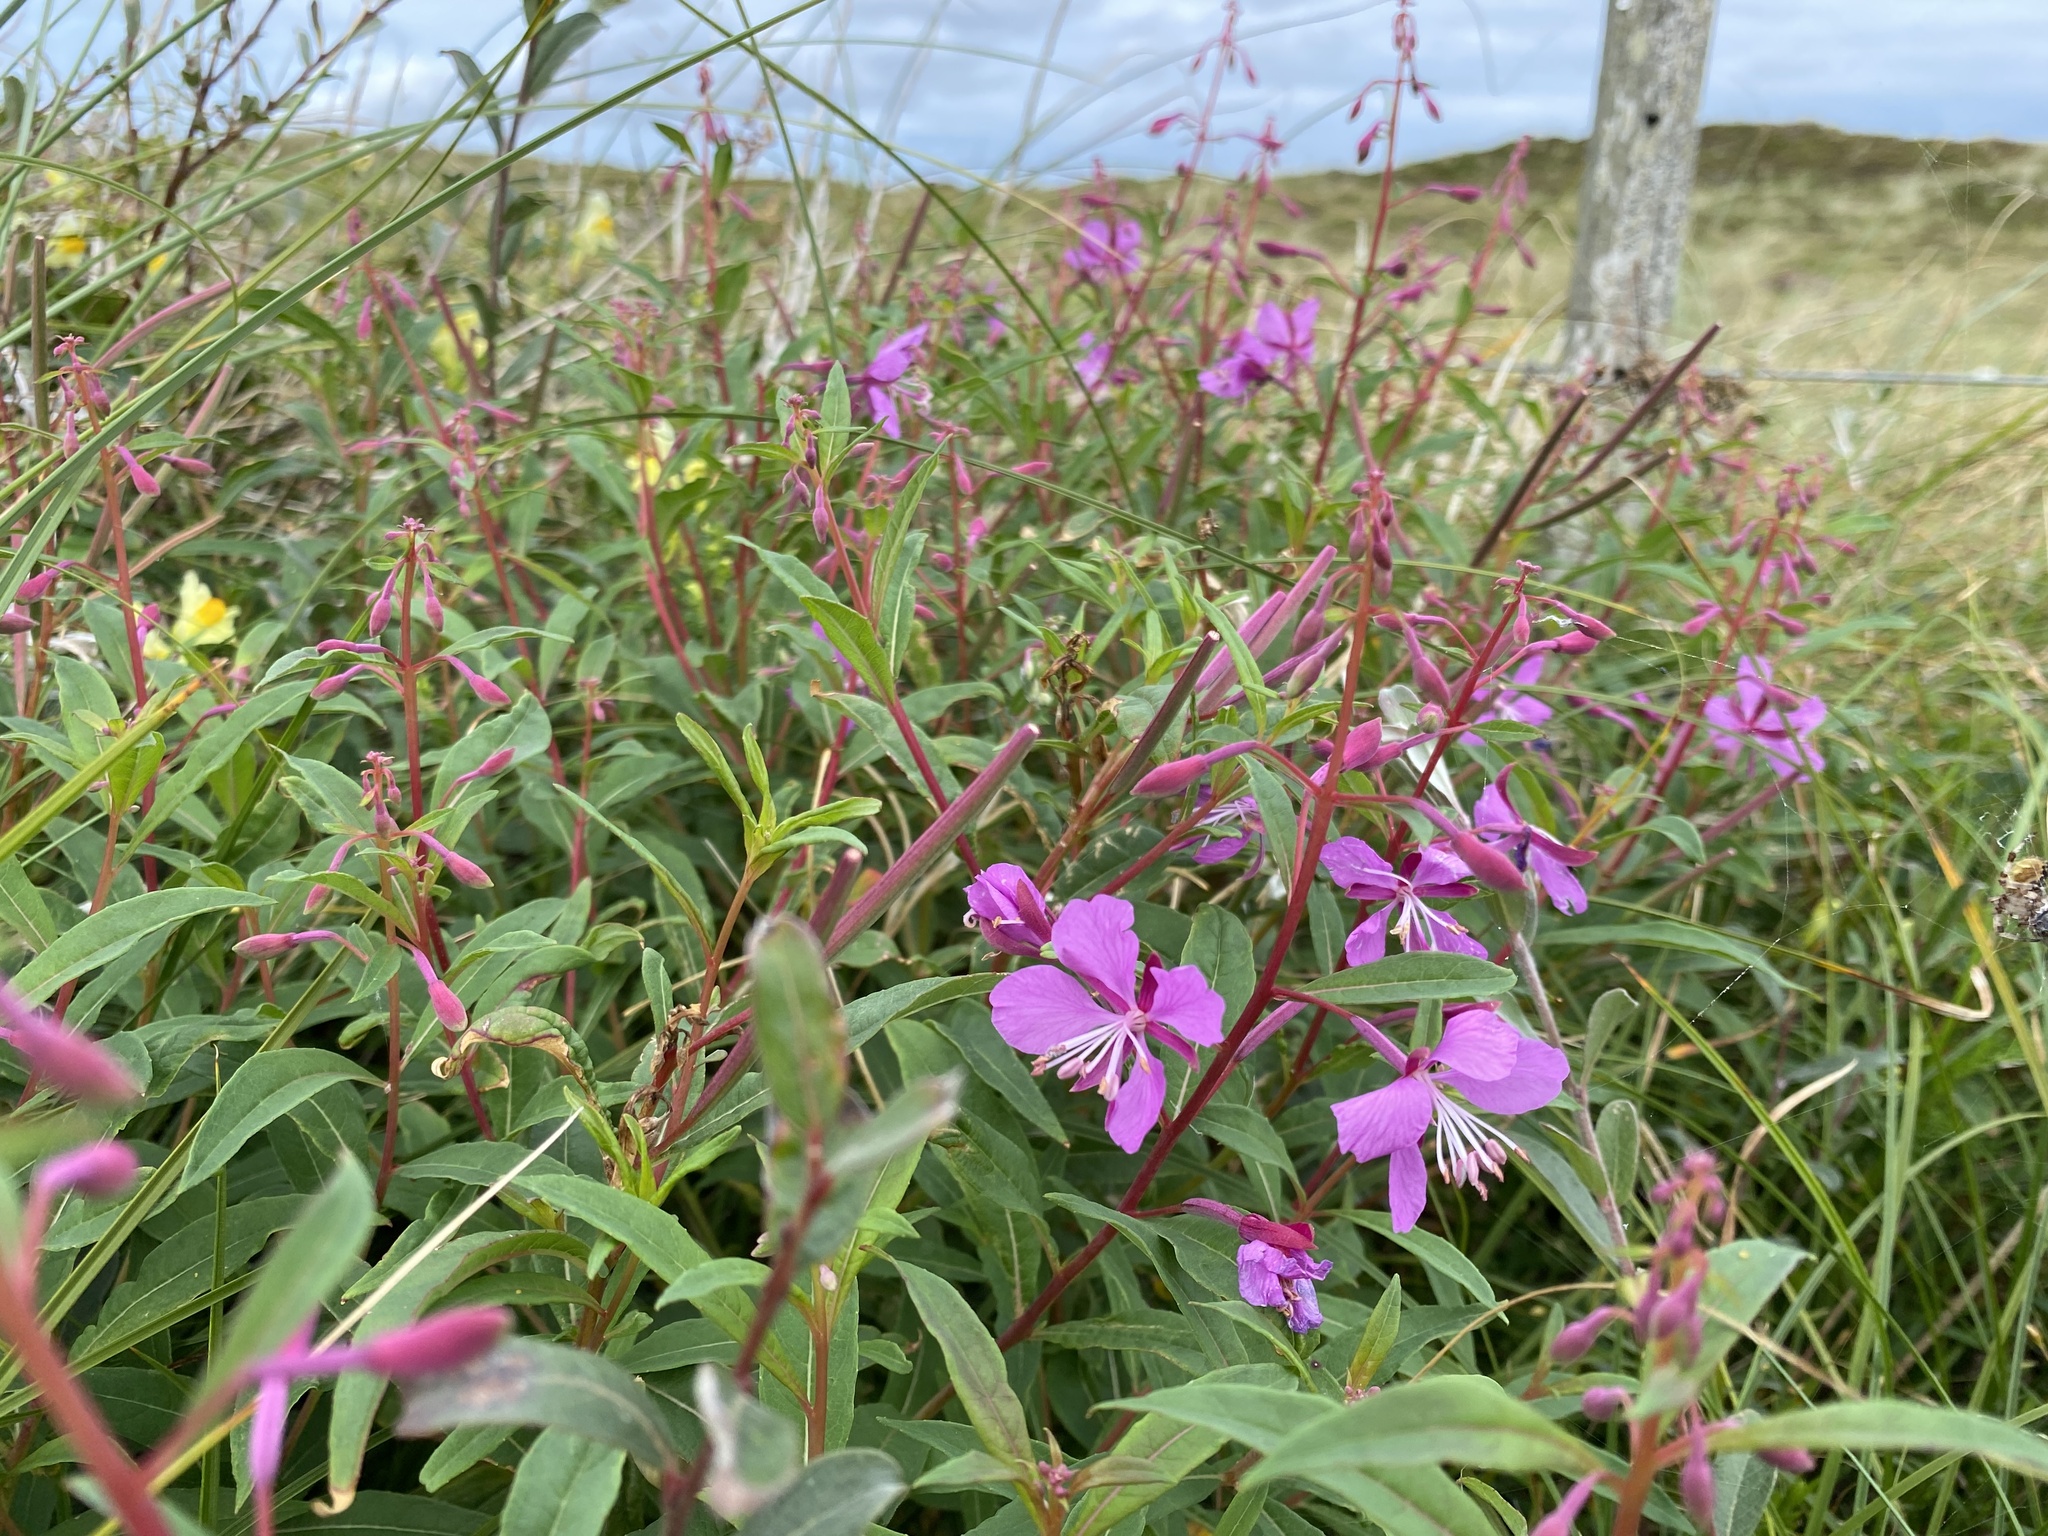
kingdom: Plantae
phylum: Tracheophyta
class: Magnoliopsida
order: Myrtales
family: Onagraceae
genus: Chamaenerion
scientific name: Chamaenerion angustifolium
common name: Fireweed
